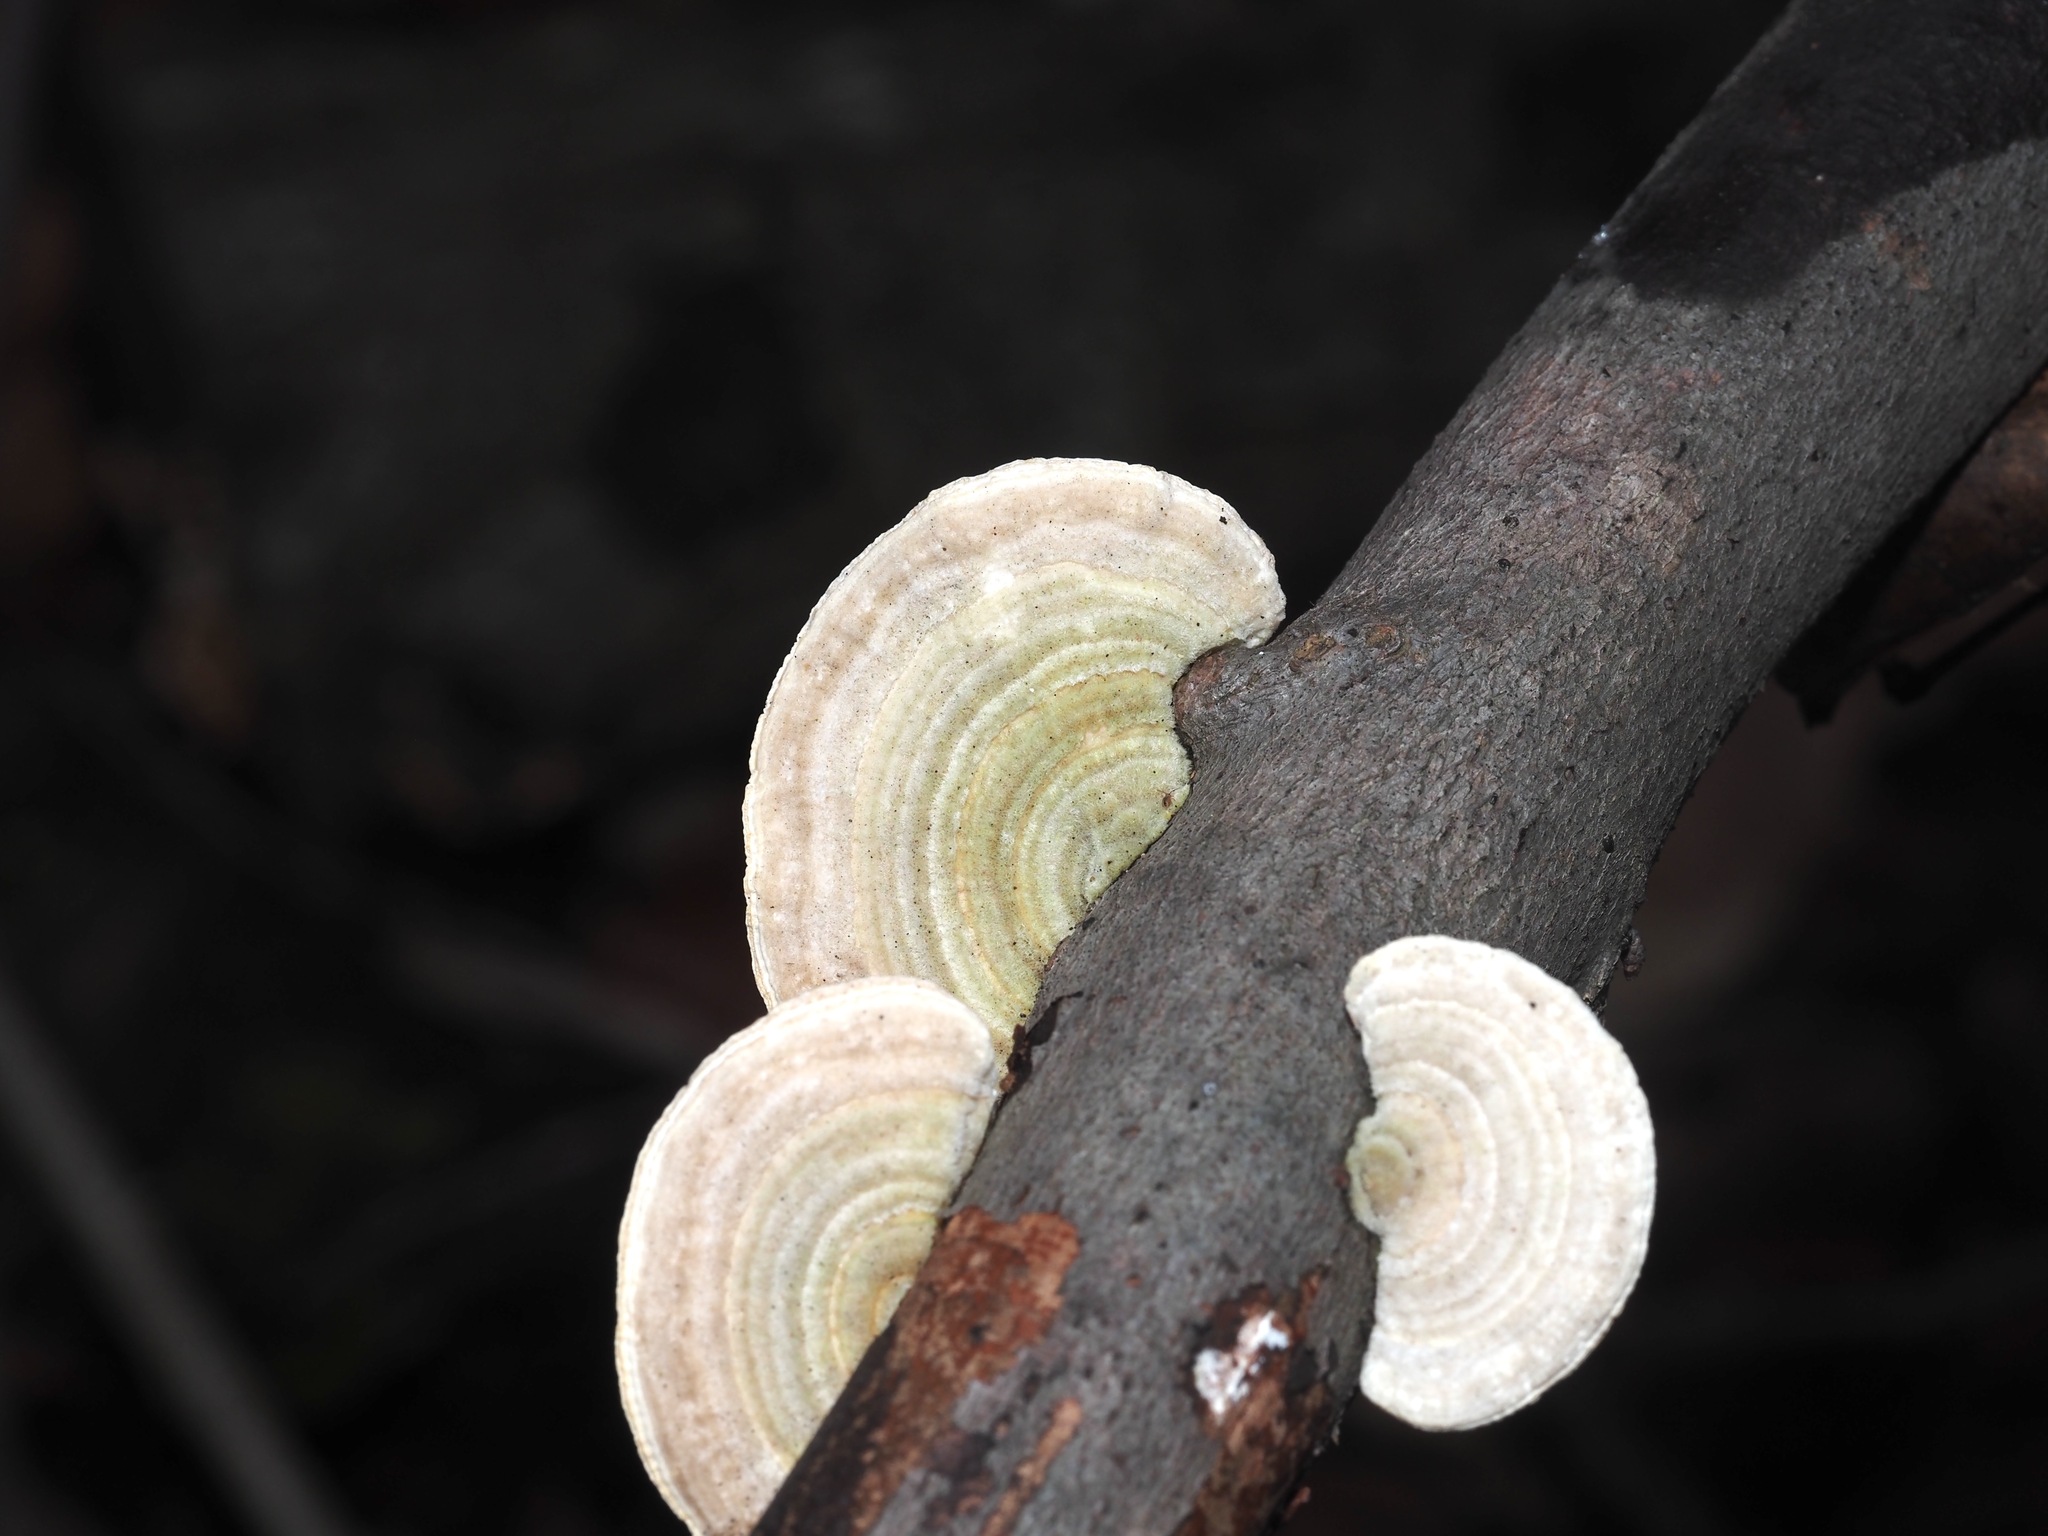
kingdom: Fungi
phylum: Basidiomycota
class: Agaricomycetes
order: Polyporales
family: Polyporaceae
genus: Lenzites
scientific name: Lenzites betulinus
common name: Birch mazegill
